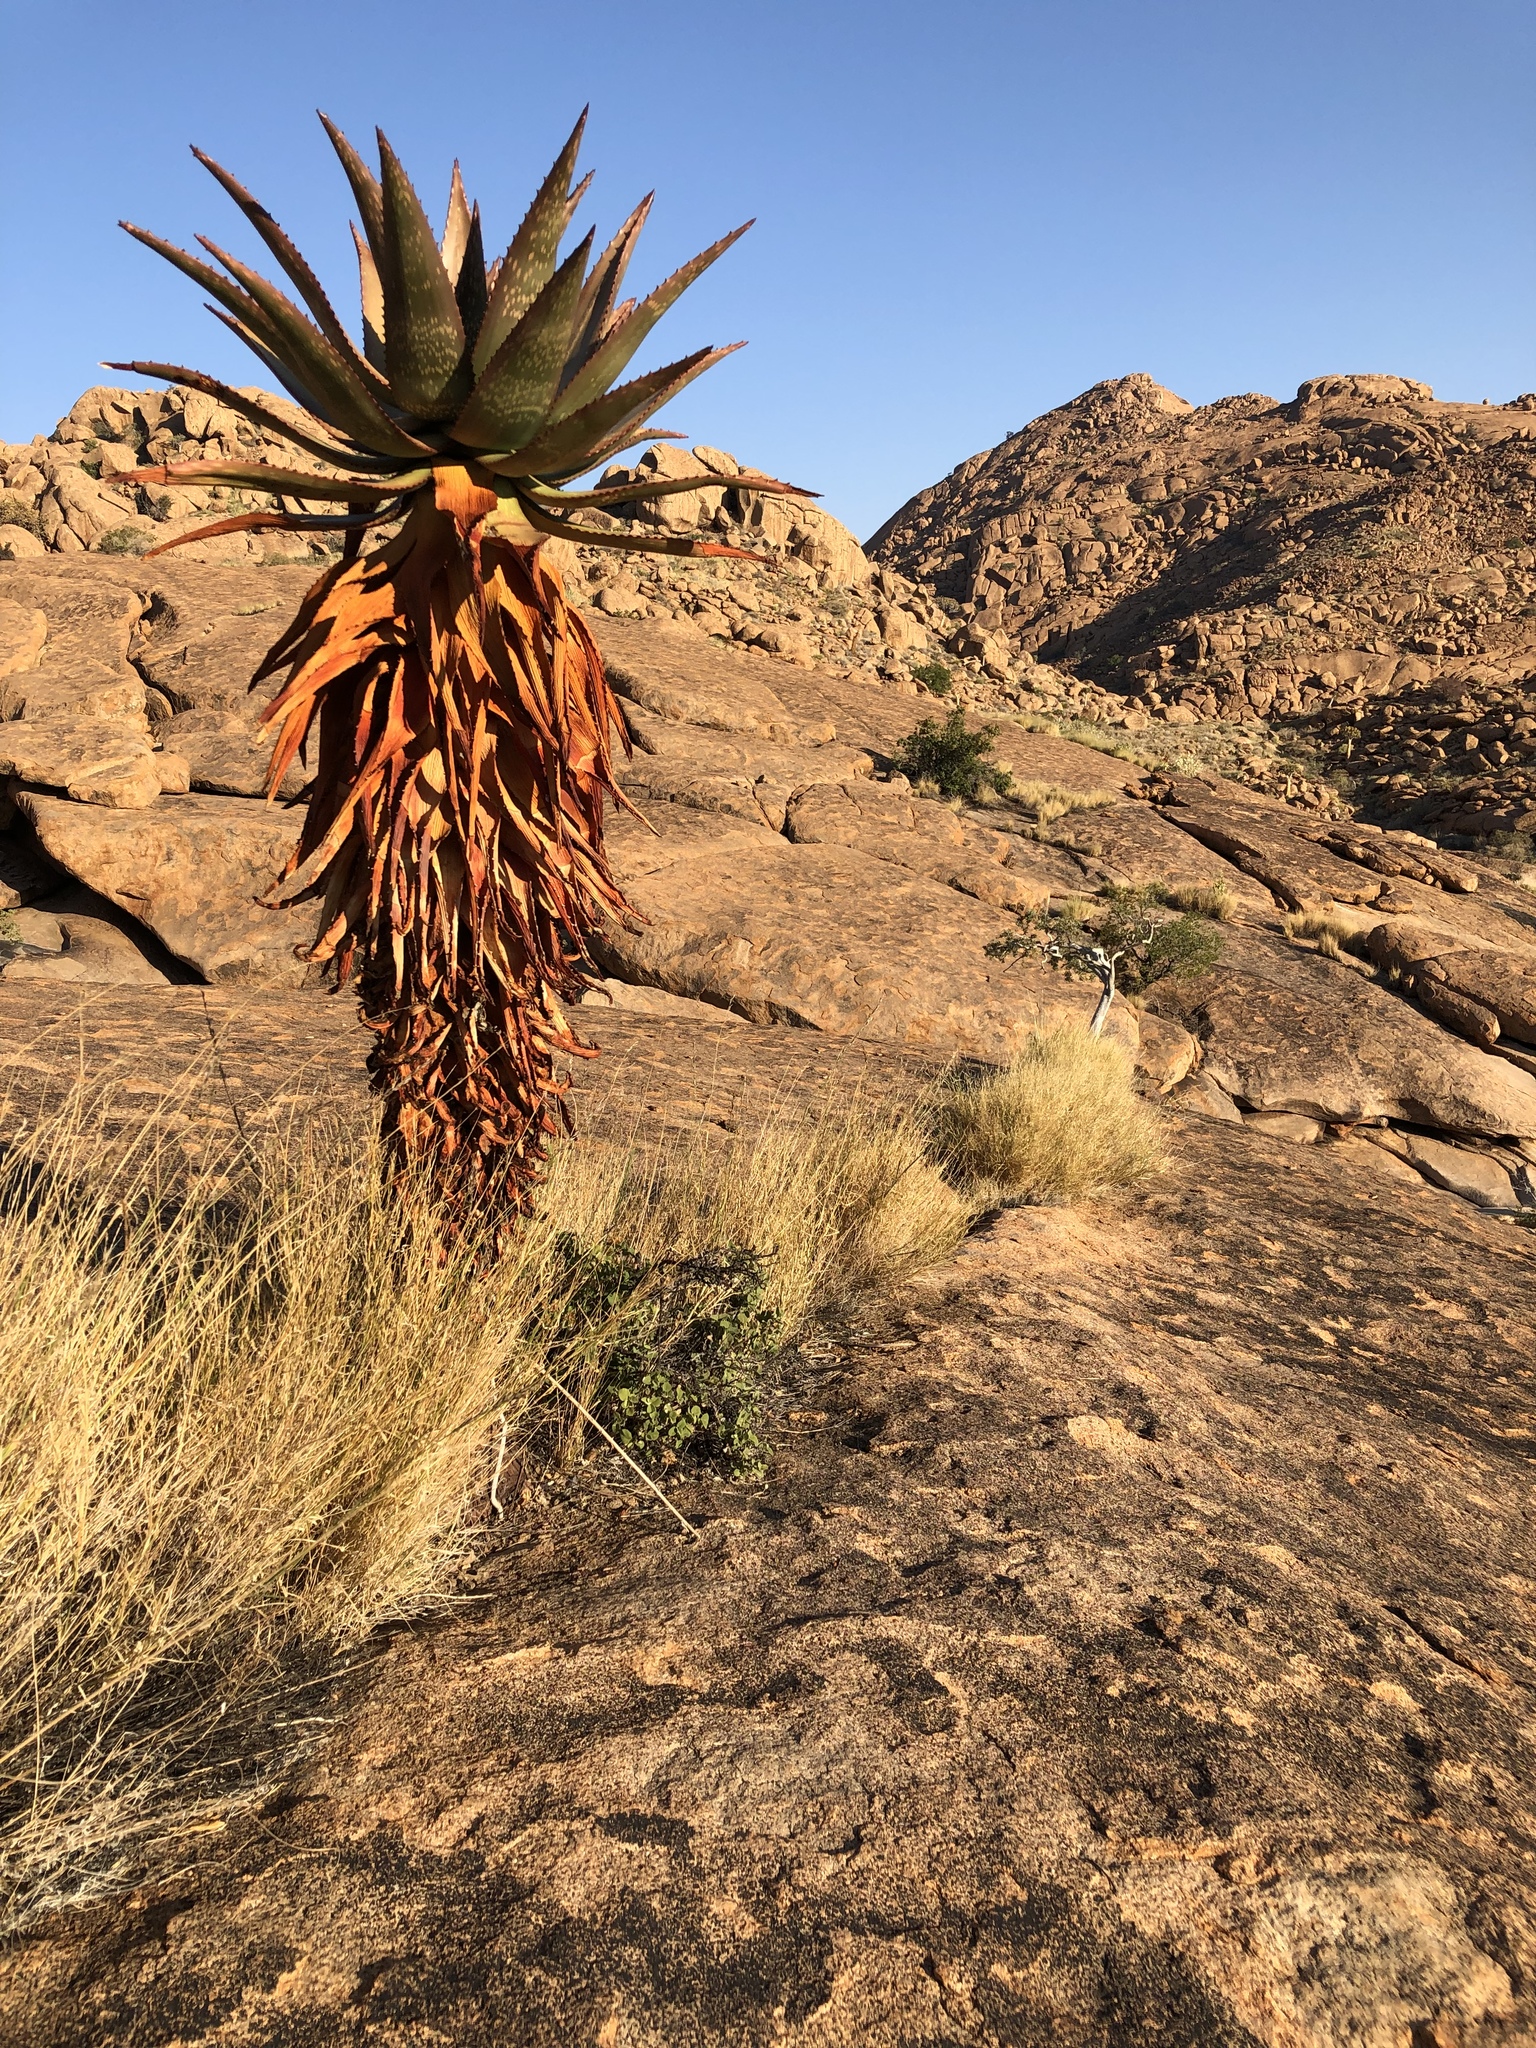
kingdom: Plantae
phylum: Tracheophyta
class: Liliopsida
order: Asparagales
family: Asphodelaceae
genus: Aloe
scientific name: Aloe littoralis
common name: Luanda tree aloe
